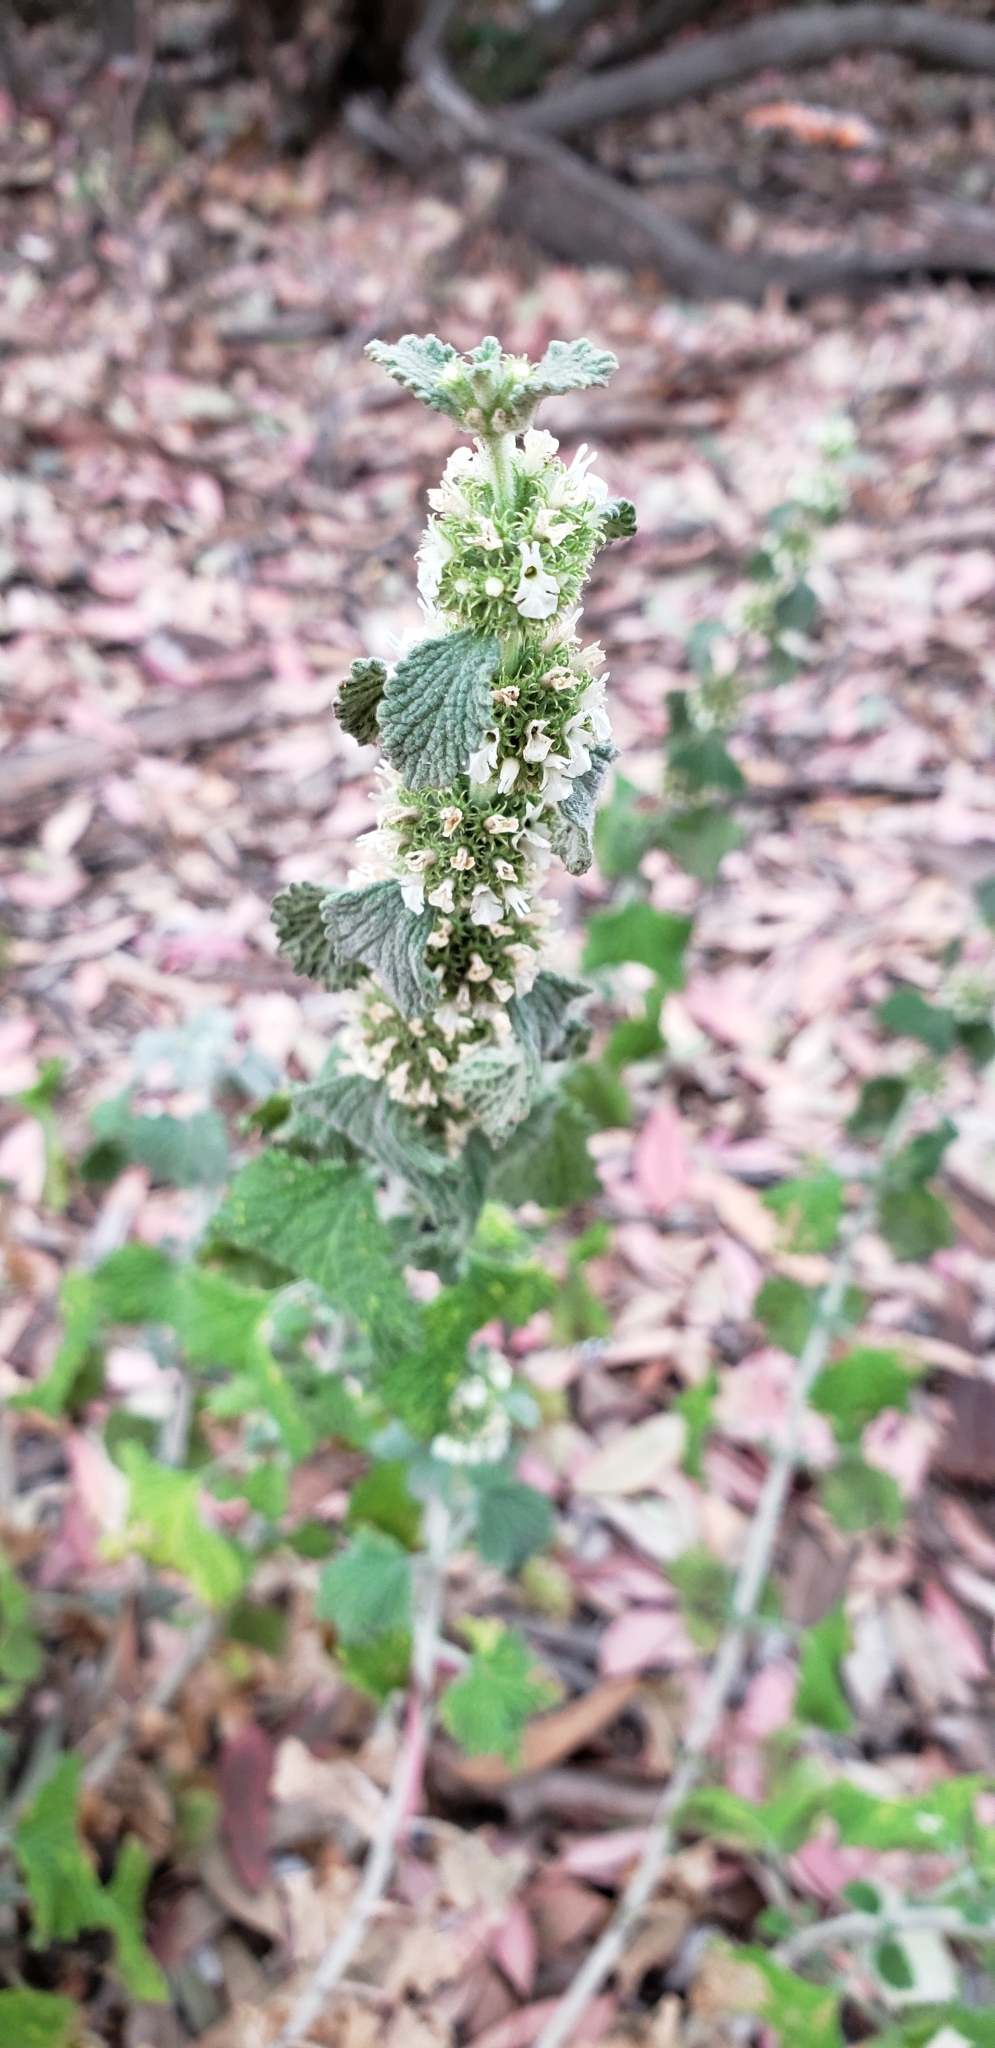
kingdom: Plantae
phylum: Tracheophyta
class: Magnoliopsida
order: Lamiales
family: Lamiaceae
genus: Marrubium
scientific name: Marrubium vulgare
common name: Horehound
